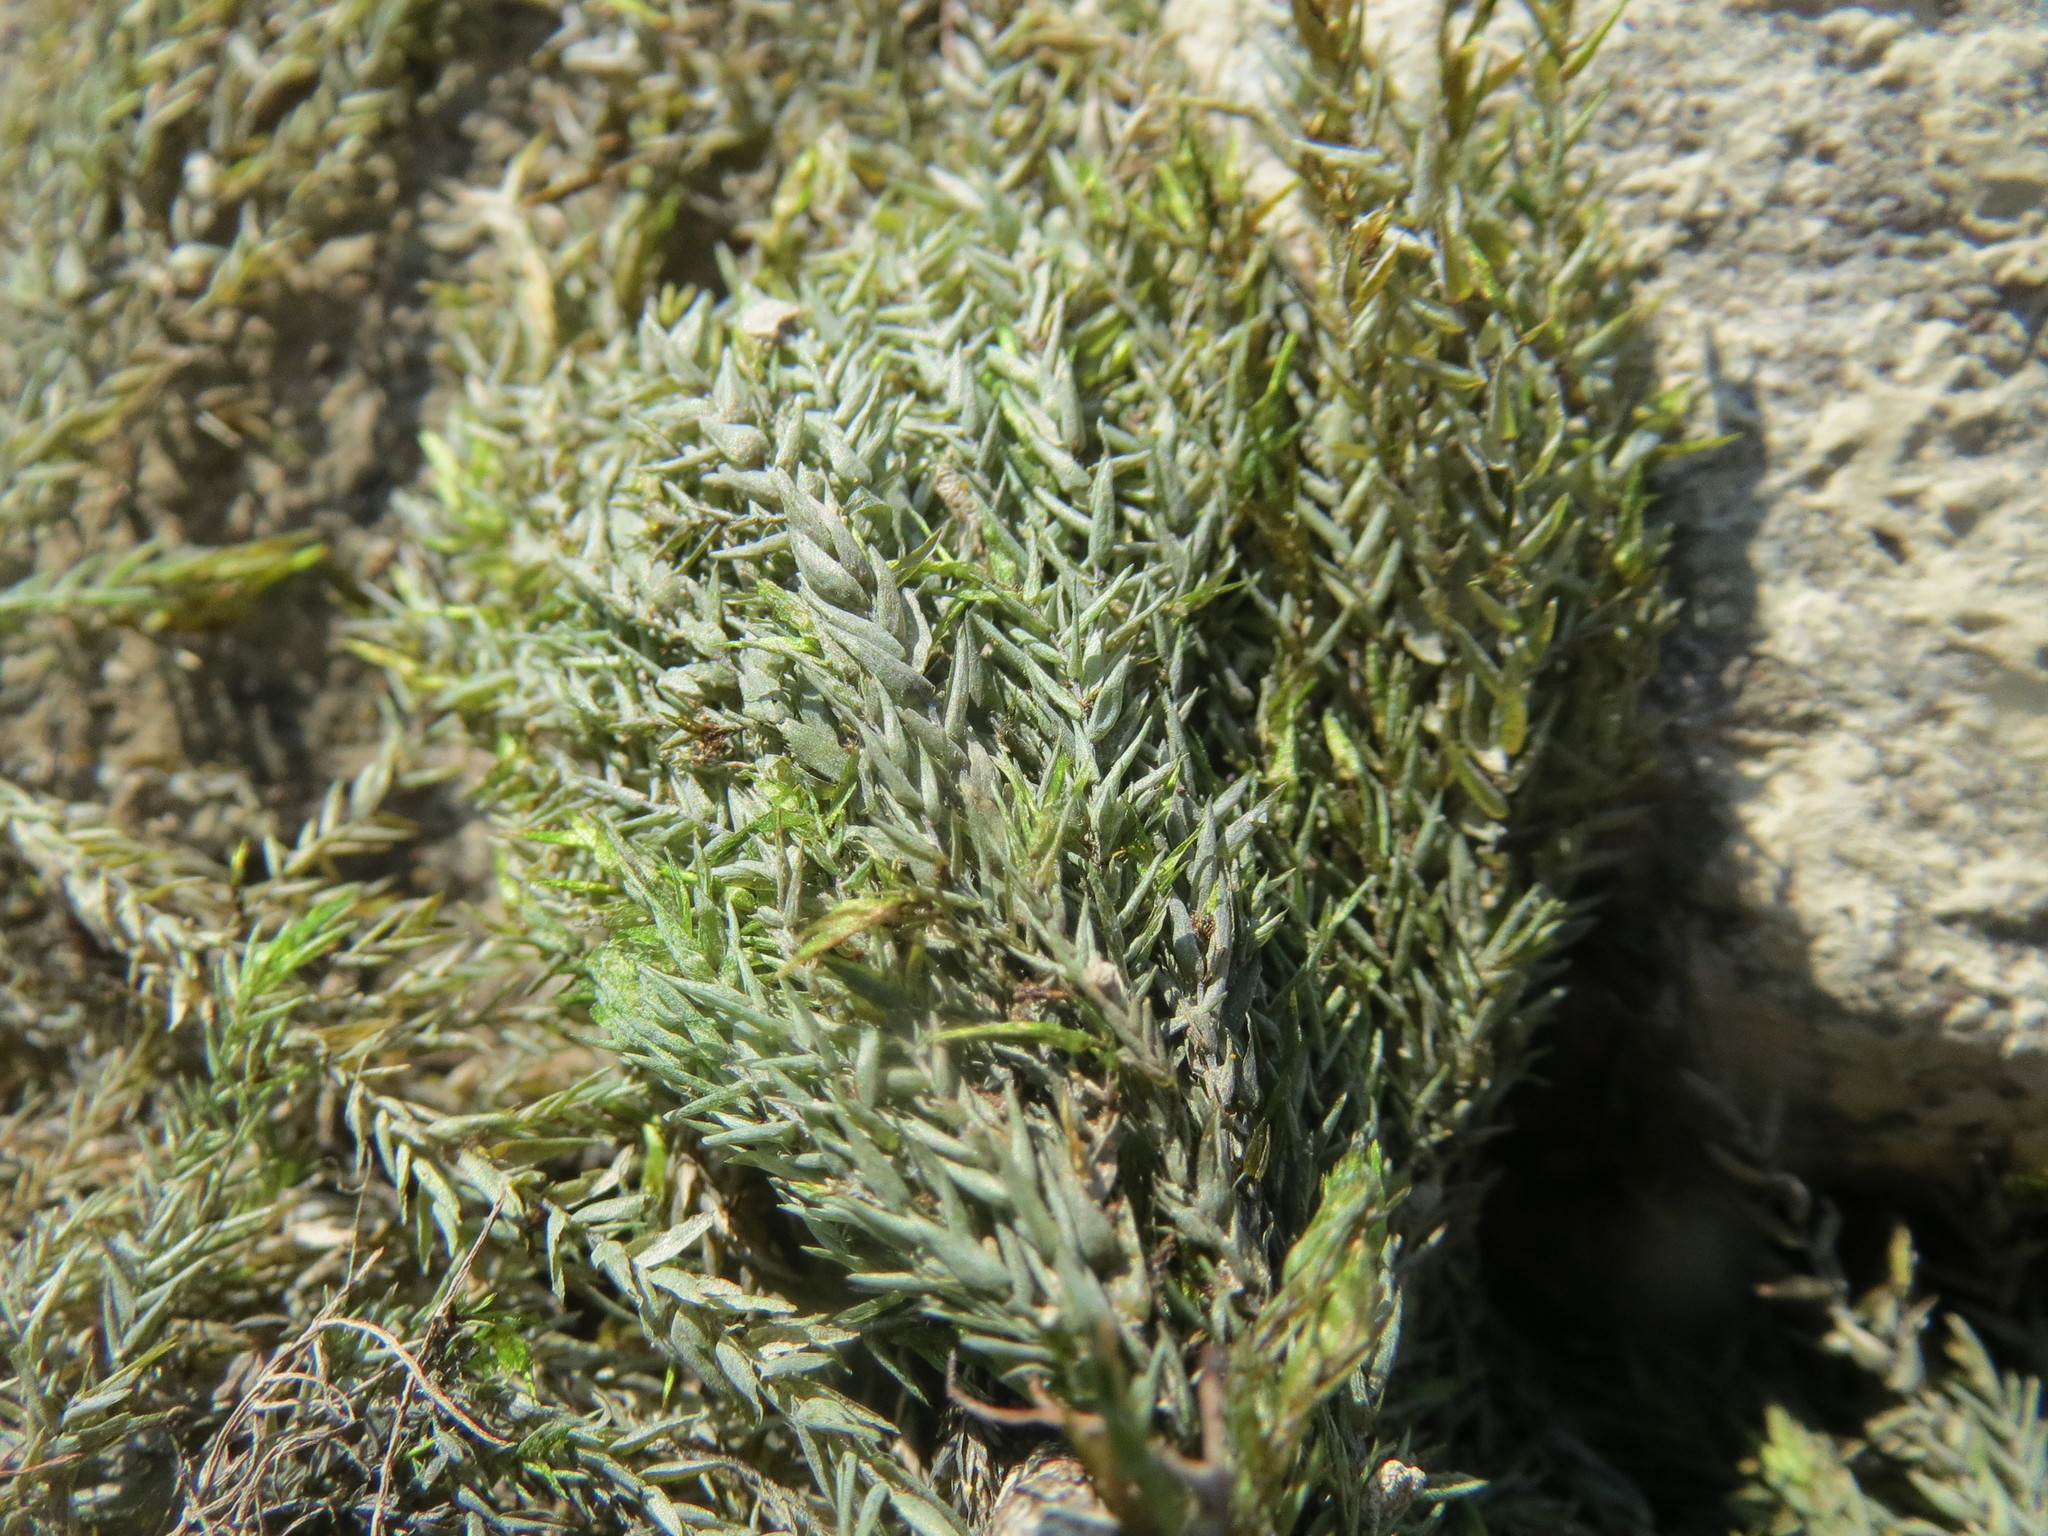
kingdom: Plantae
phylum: Bryophyta
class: Bryopsida
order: Hypnales
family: Fontinalaceae
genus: Fontinalis
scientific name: Fontinalis antipyretica
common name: Greater water-moss
